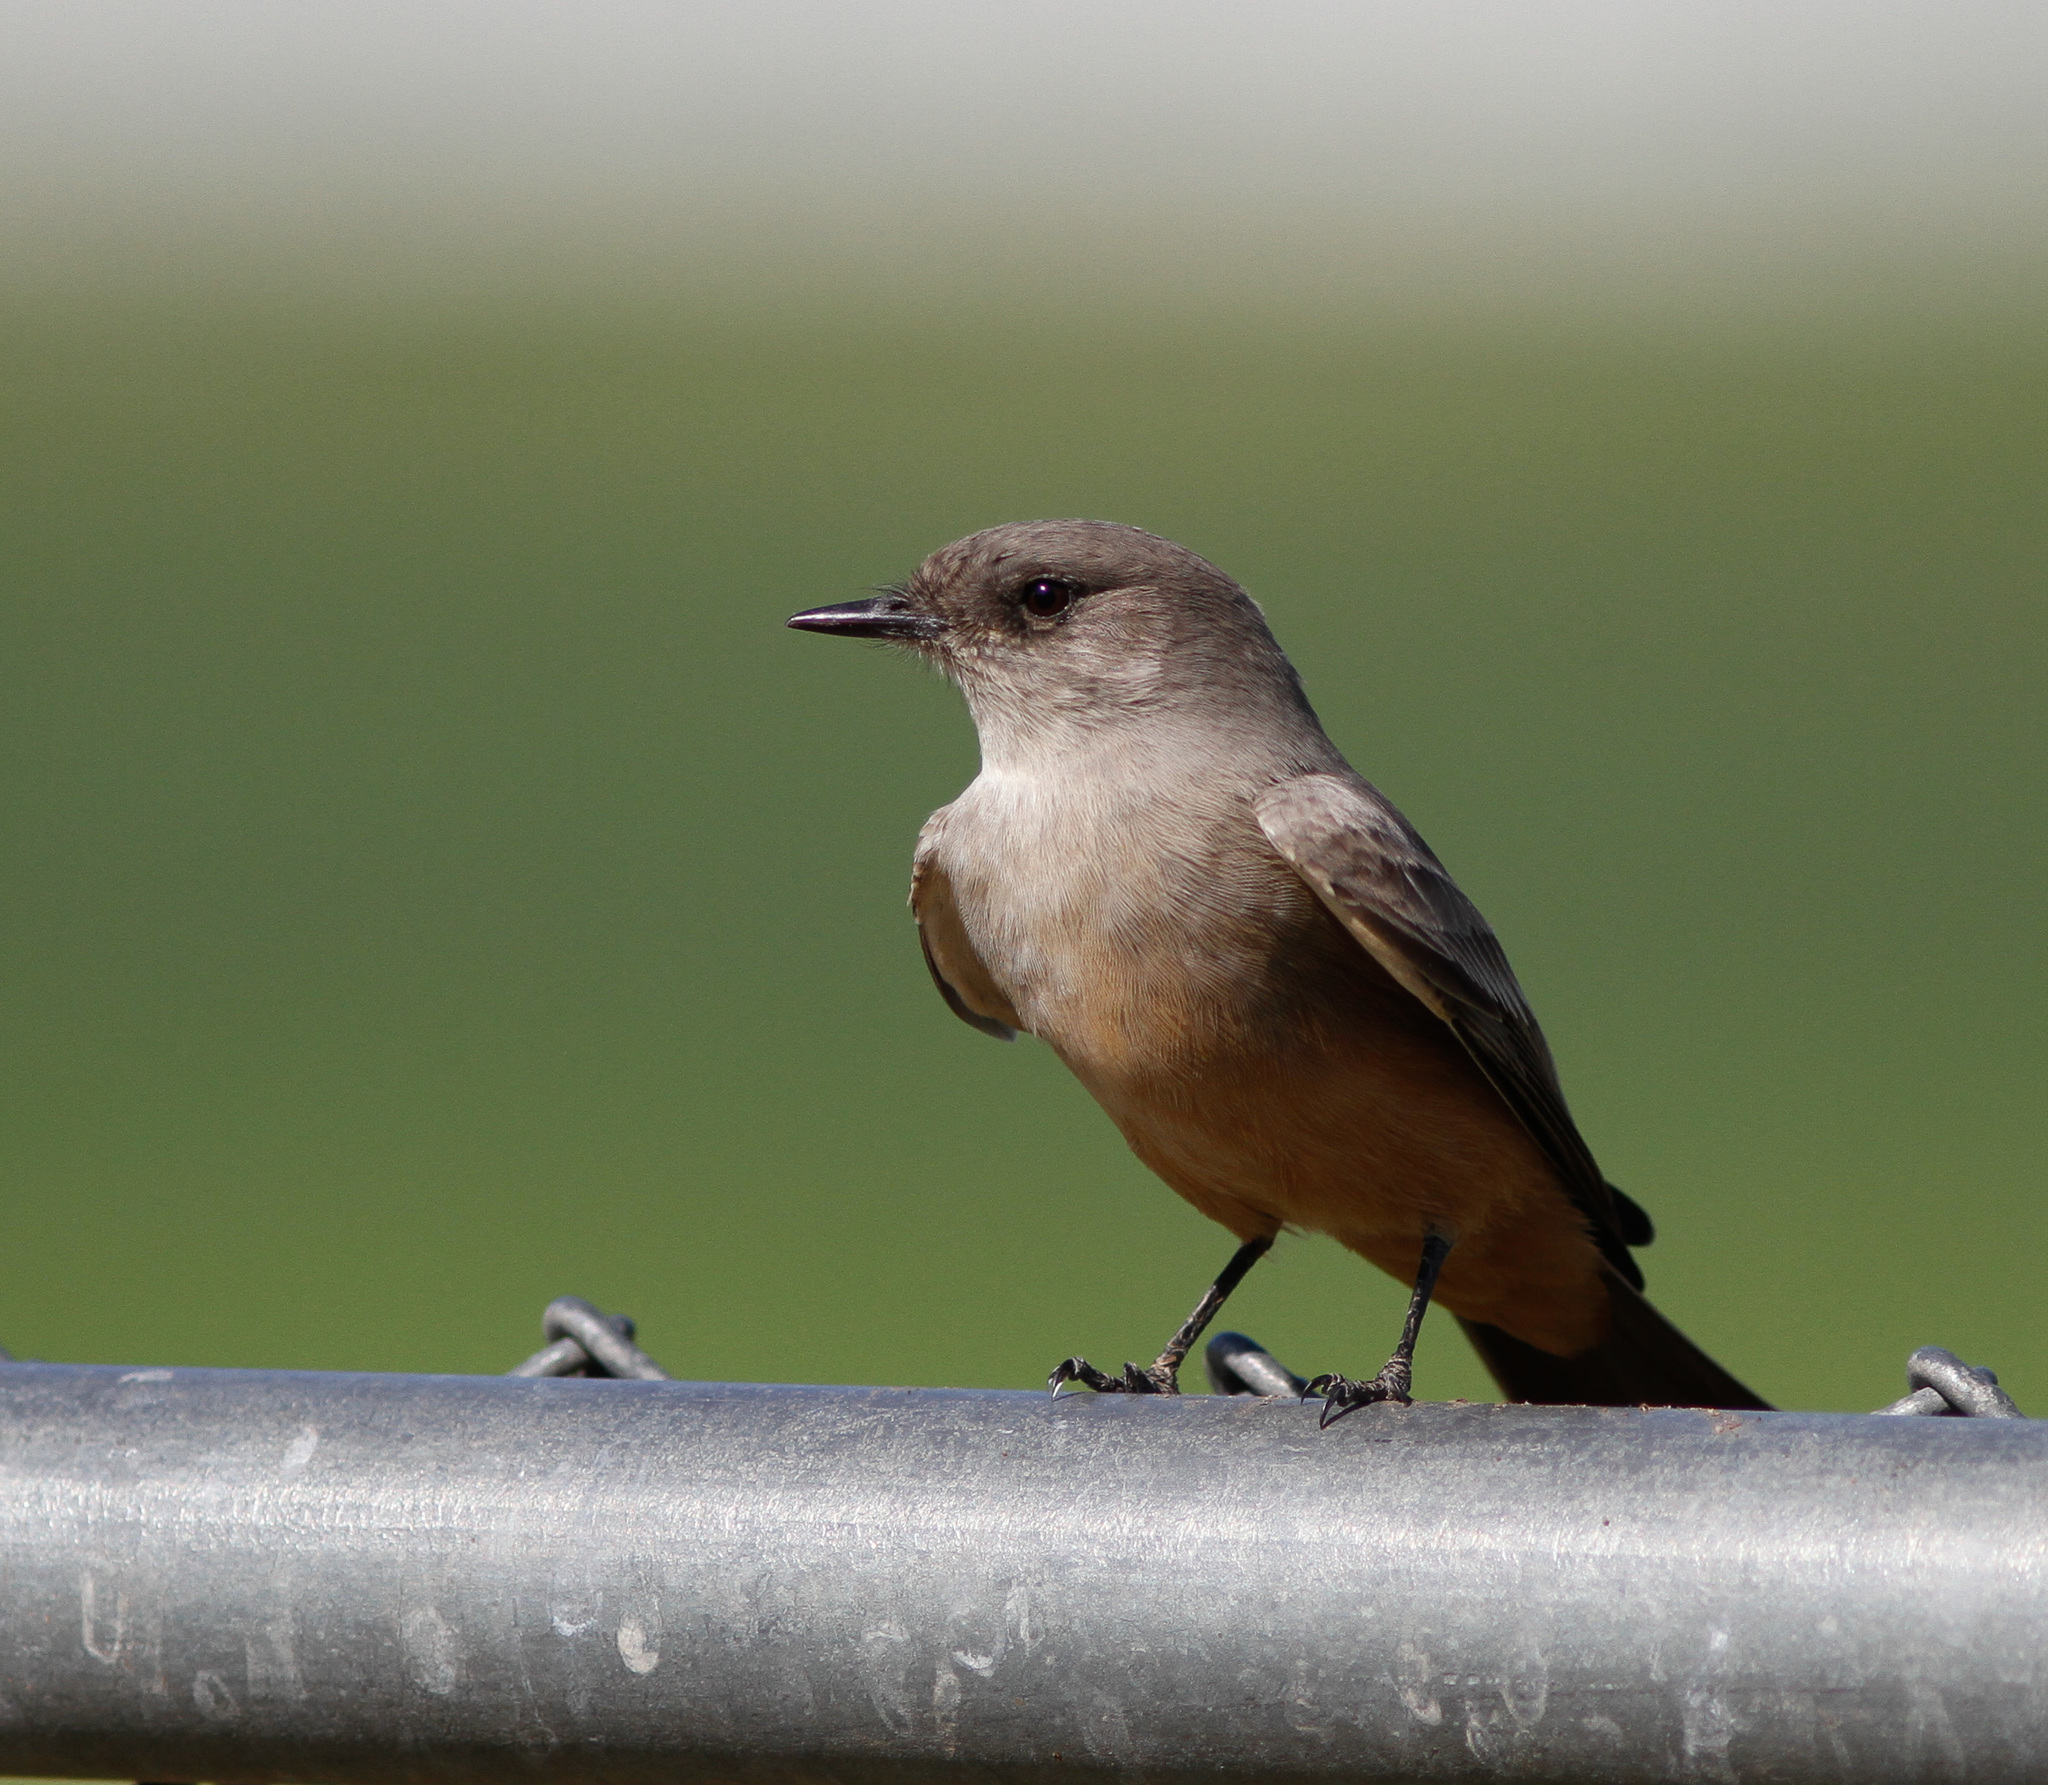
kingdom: Animalia
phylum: Chordata
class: Aves
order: Passeriformes
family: Tyrannidae
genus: Sayornis
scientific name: Sayornis saya
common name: Say's phoebe
